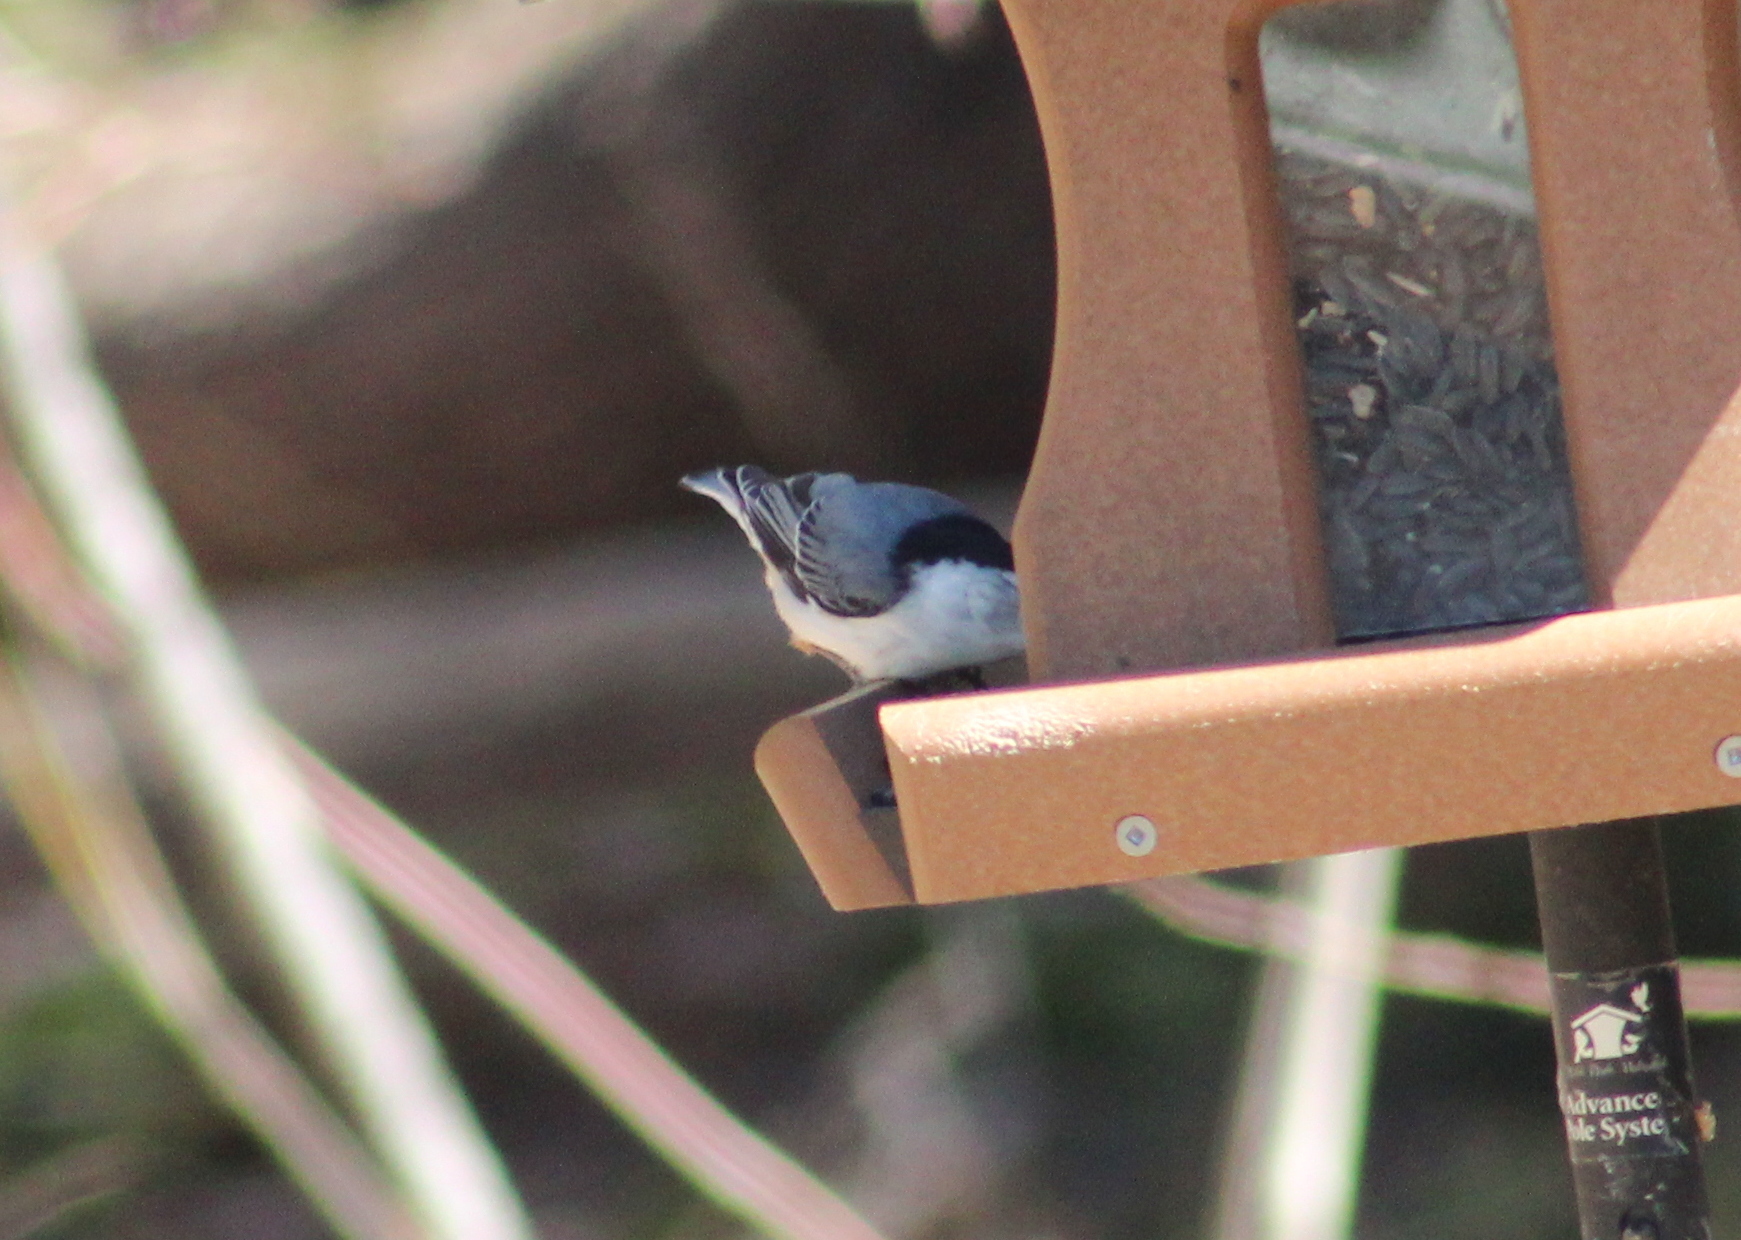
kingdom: Animalia
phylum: Chordata
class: Aves
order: Passeriformes
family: Sittidae
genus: Sitta
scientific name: Sitta carolinensis
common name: White-breasted nuthatch
